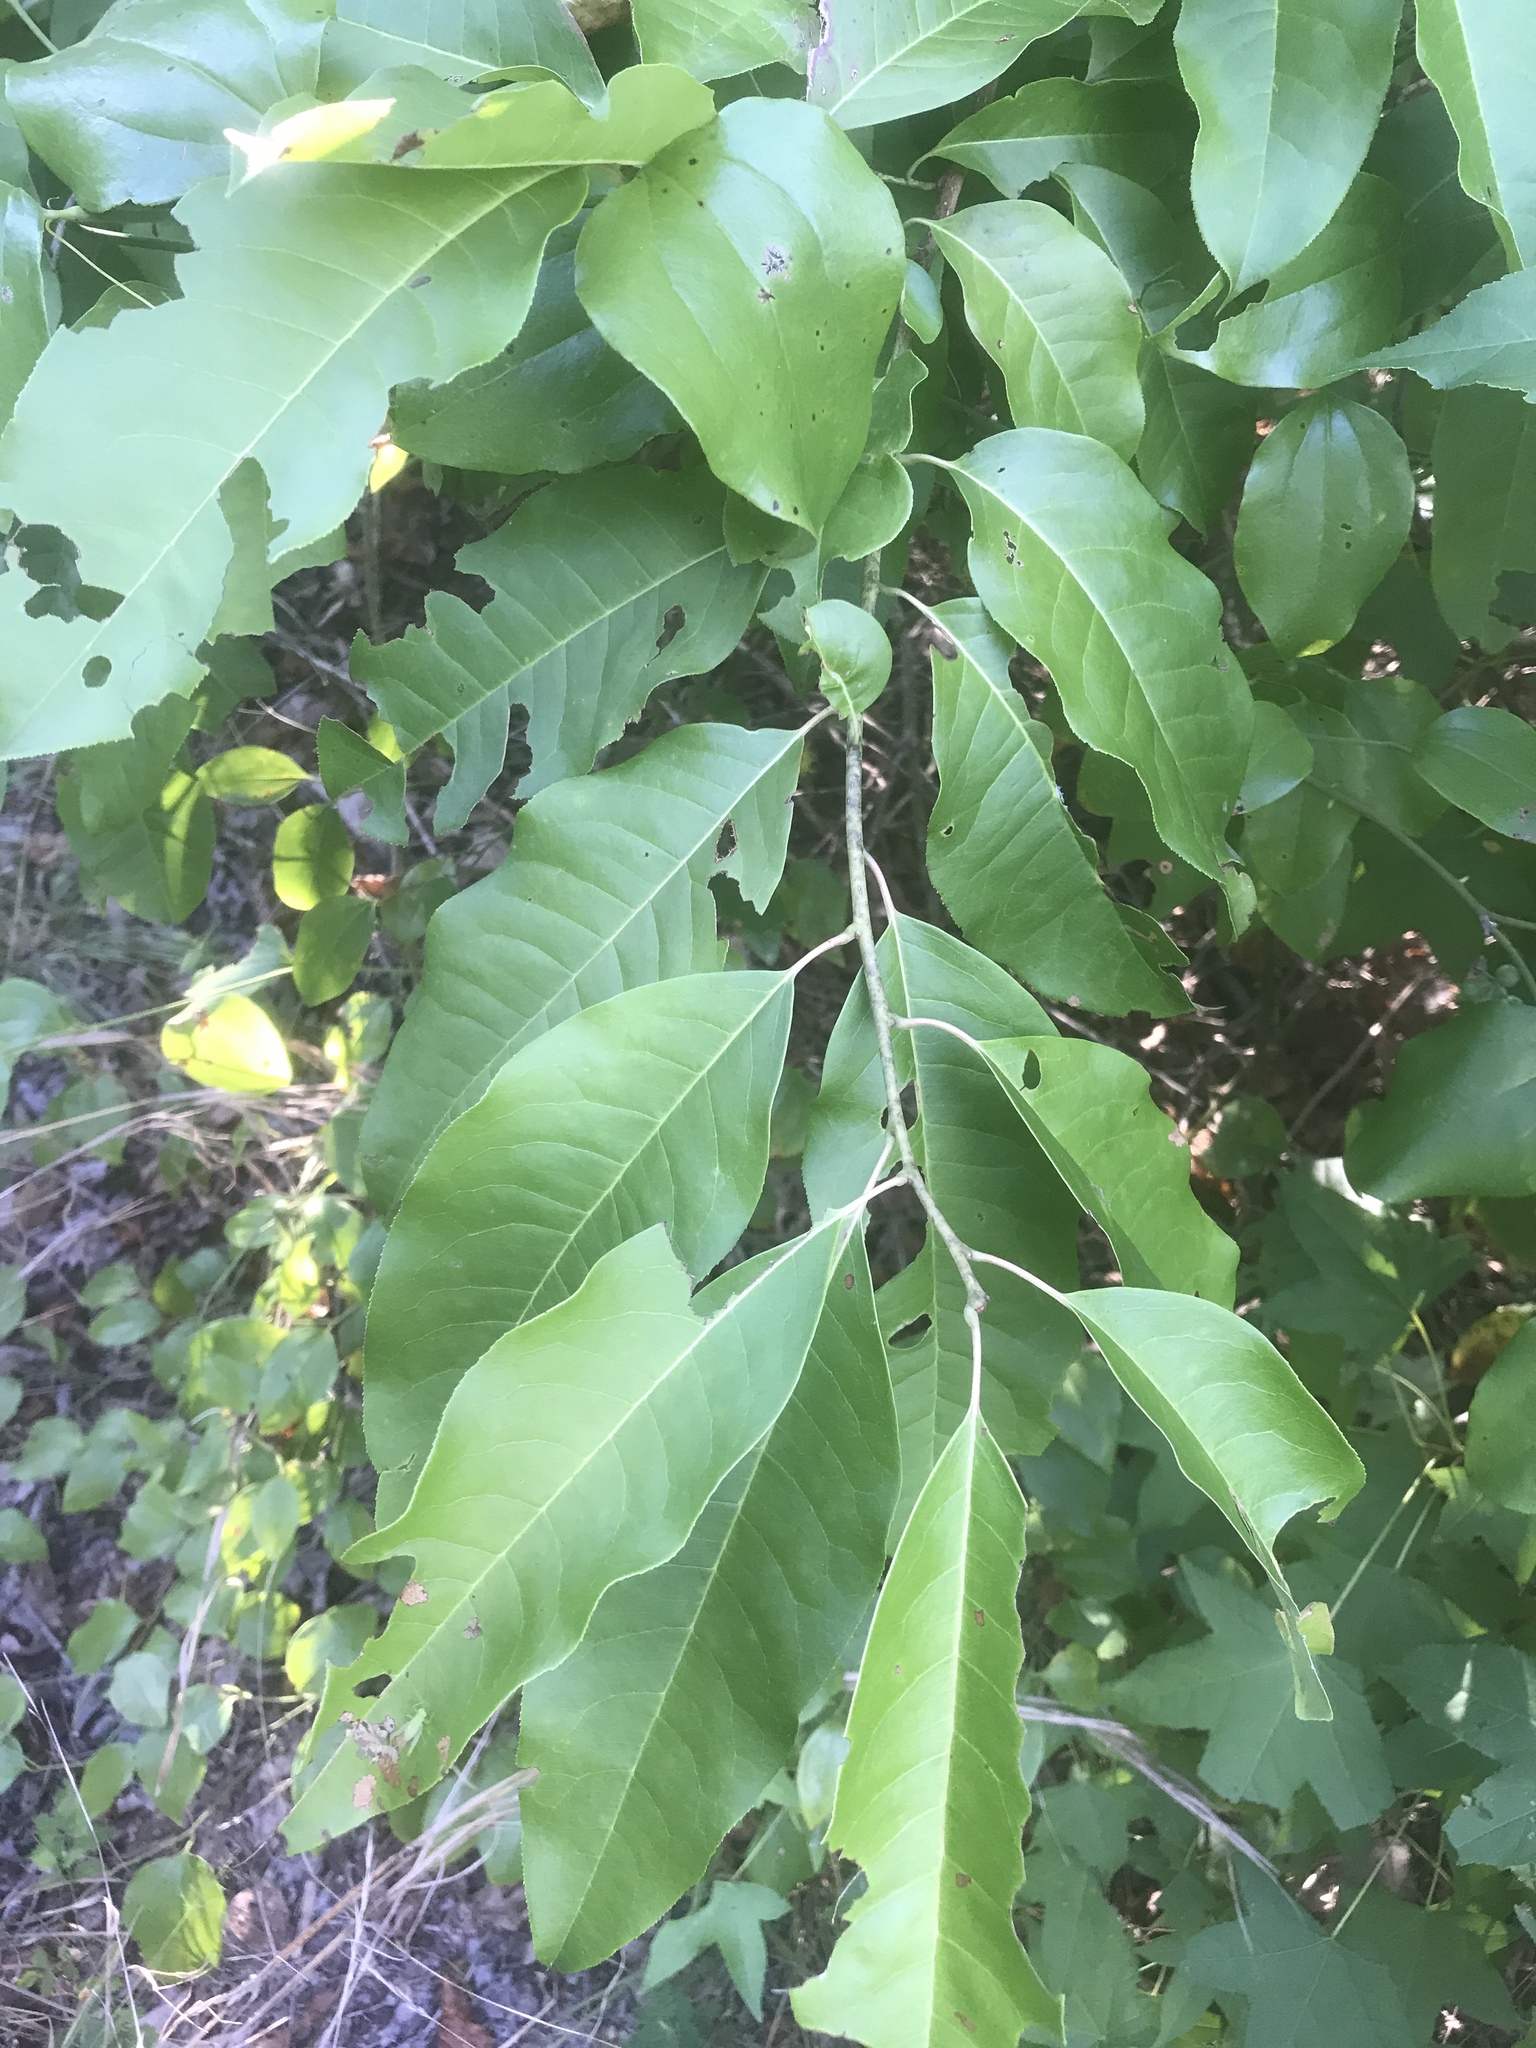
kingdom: Plantae
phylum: Tracheophyta
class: Magnoliopsida
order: Ericales
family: Ericaceae
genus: Oxydendrum
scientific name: Oxydendrum arboreum
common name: Sourwood
